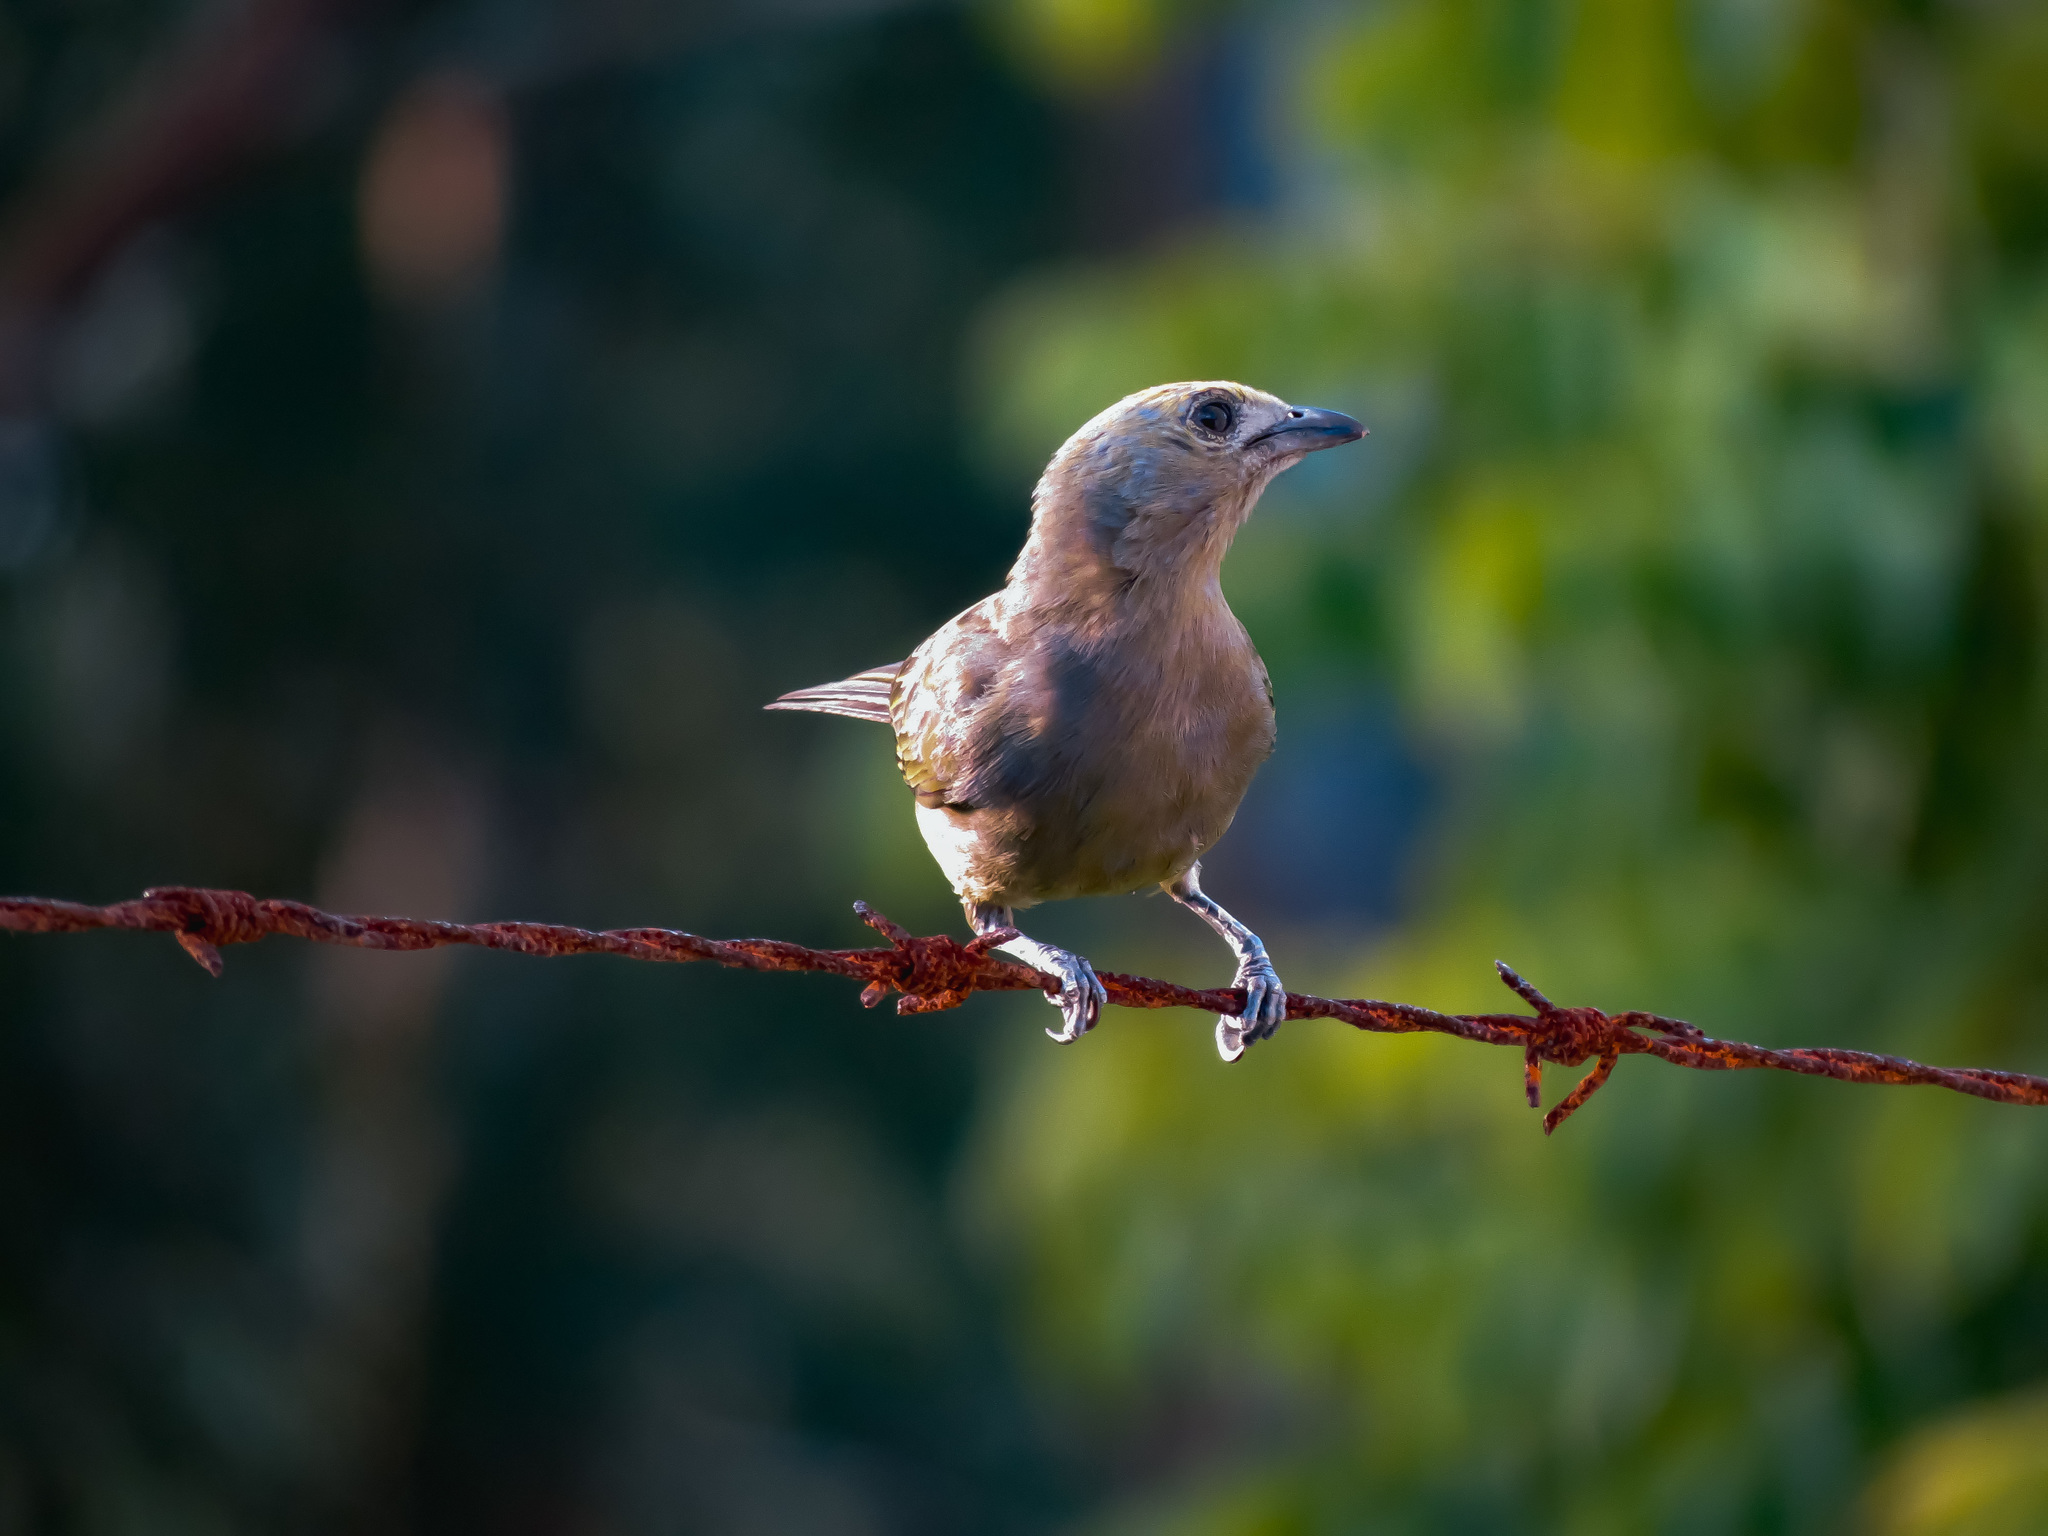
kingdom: Animalia
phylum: Chordata
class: Aves
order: Passeriformes
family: Thraupidae
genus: Thraupis
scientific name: Thraupis palmarum
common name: Palm tanager
